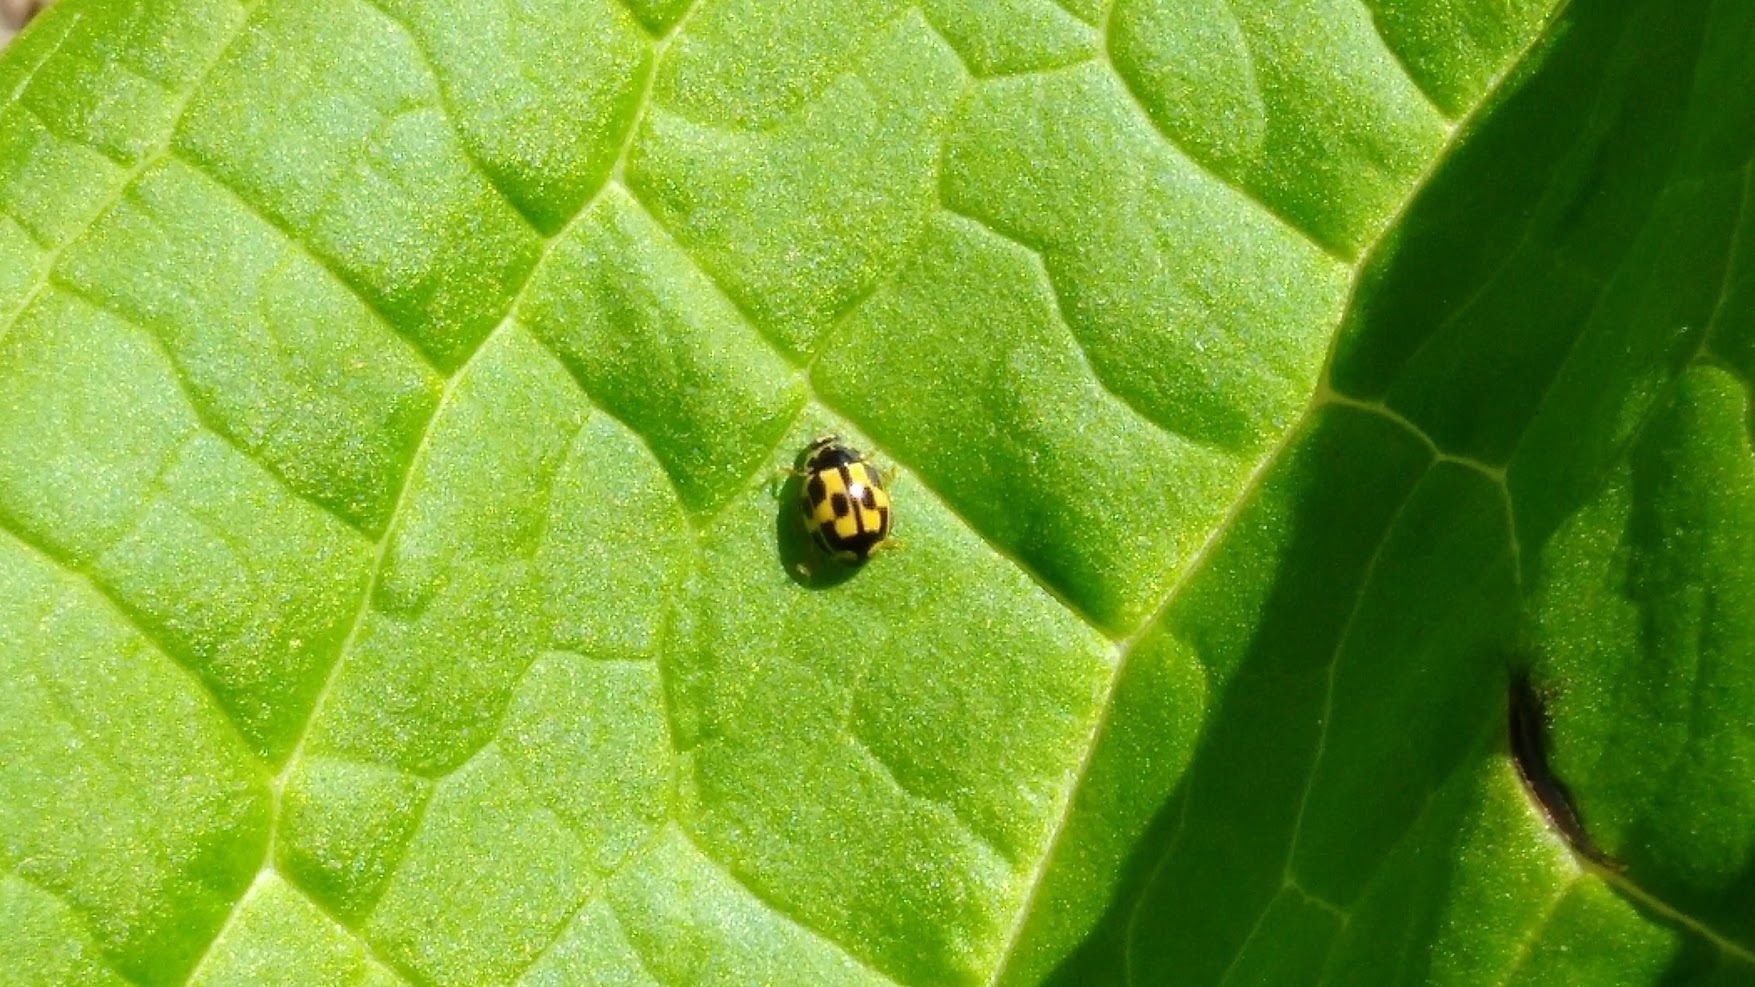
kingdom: Animalia
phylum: Arthropoda
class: Insecta
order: Coleoptera
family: Coccinellidae
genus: Propylaea
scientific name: Propylaea quatuordecimpunctata
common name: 14-spotted ladybird beetle
